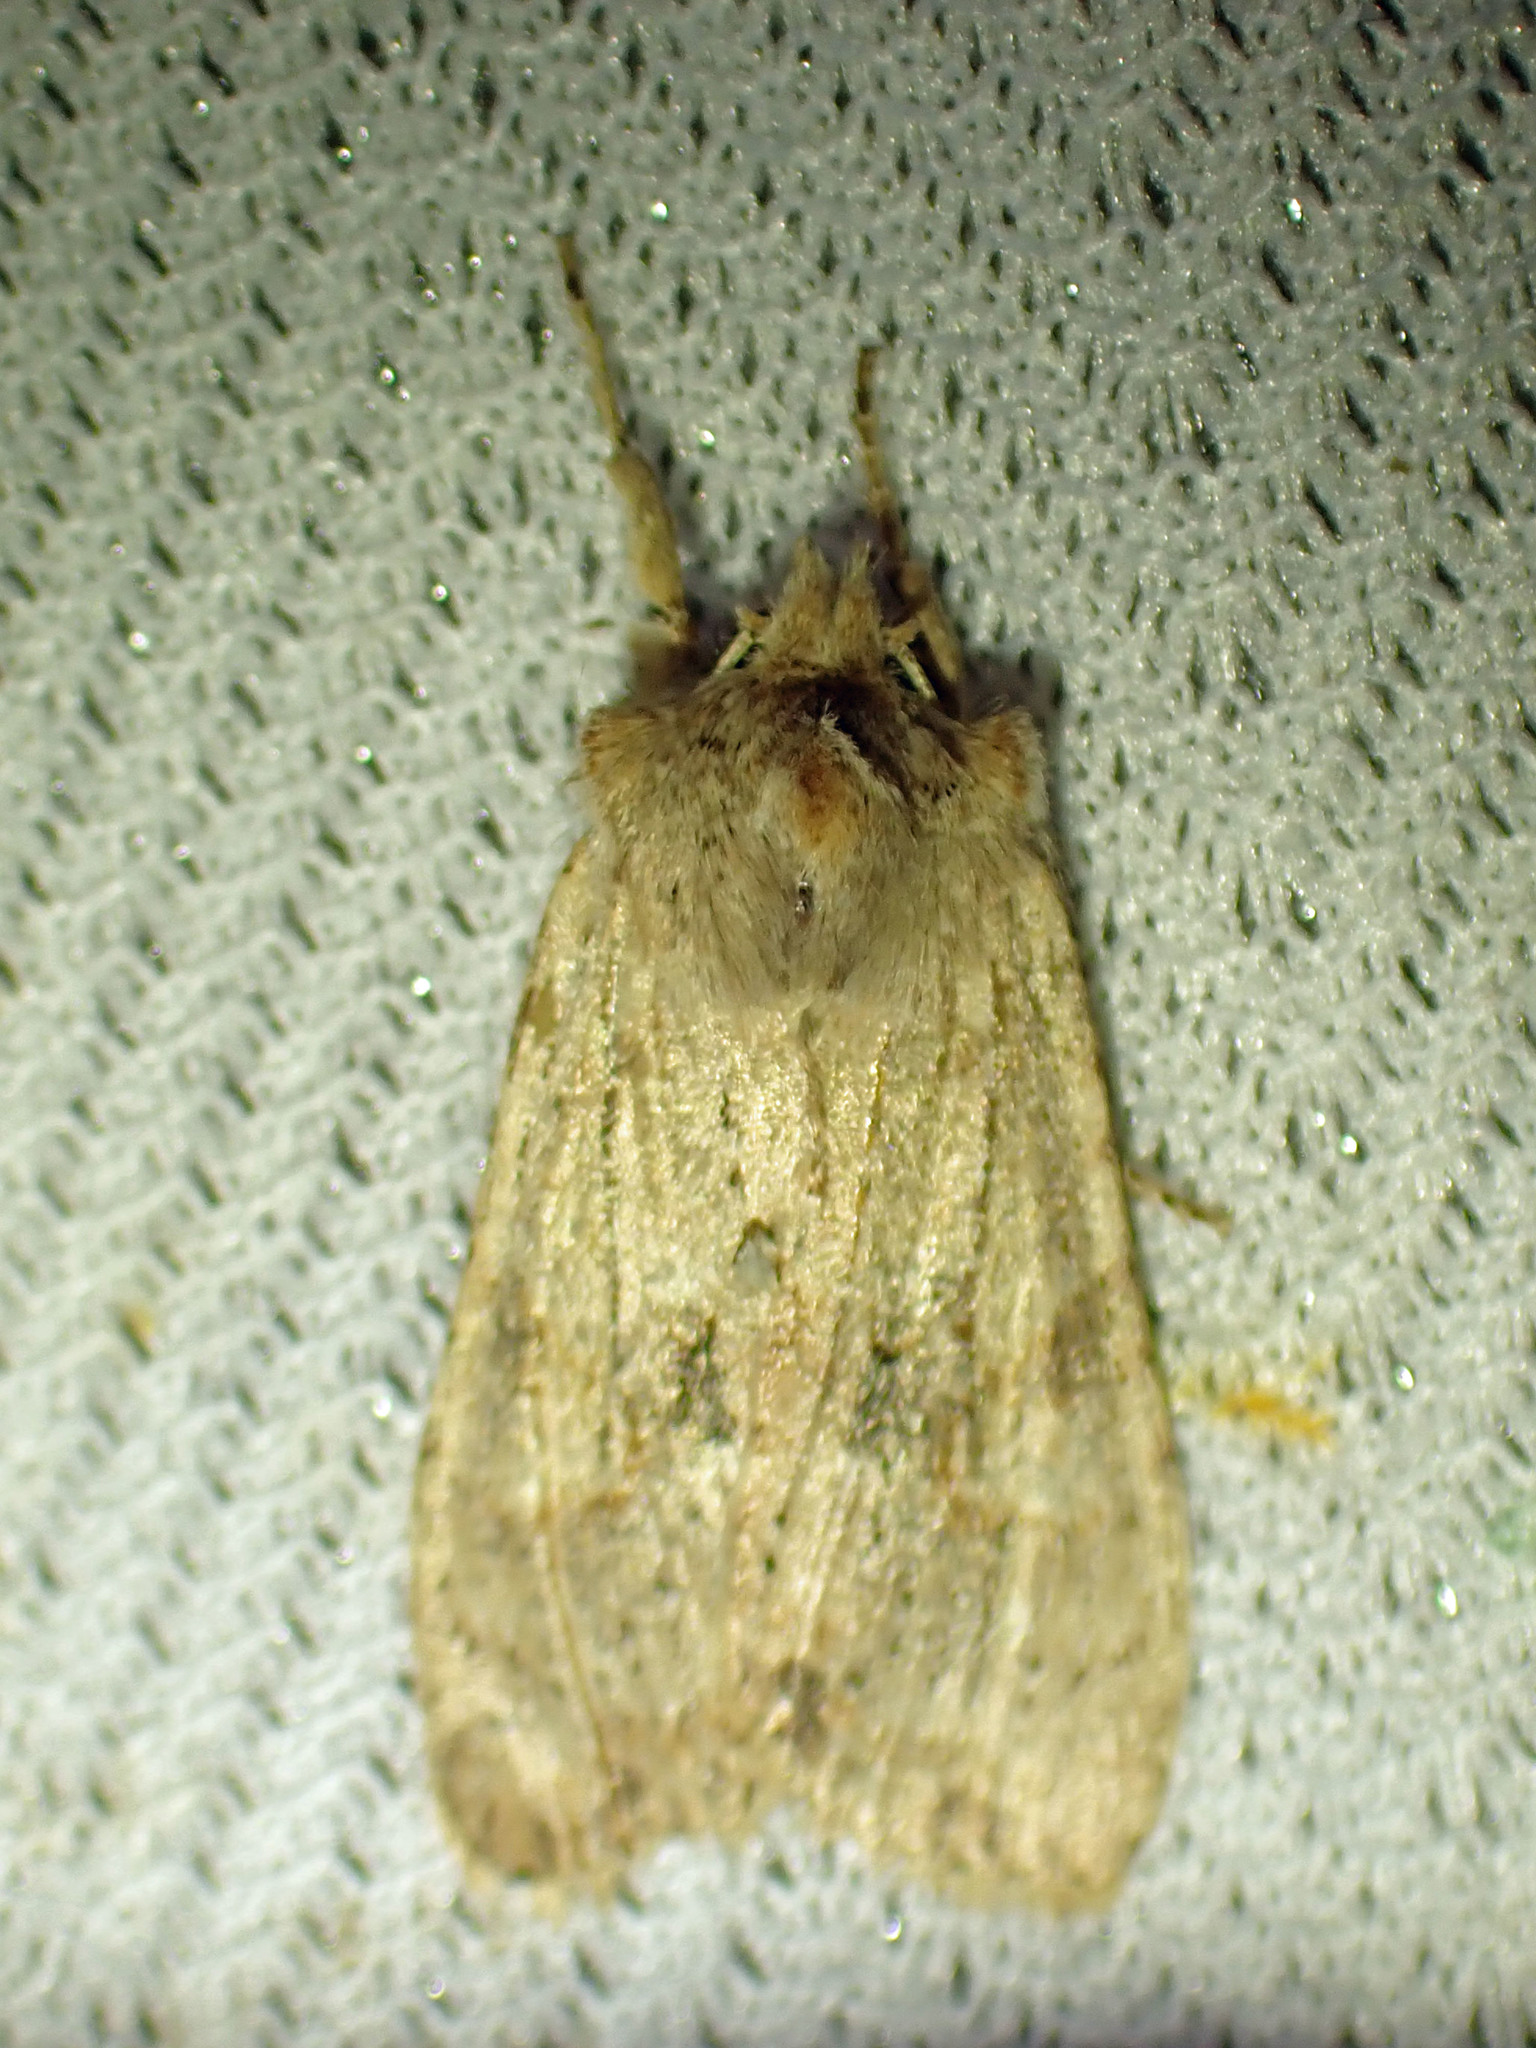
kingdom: Animalia
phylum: Arthropoda
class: Insecta
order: Lepidoptera
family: Noctuidae
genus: Lithophane
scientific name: Lithophane innominata
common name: Nameless pinion moth
